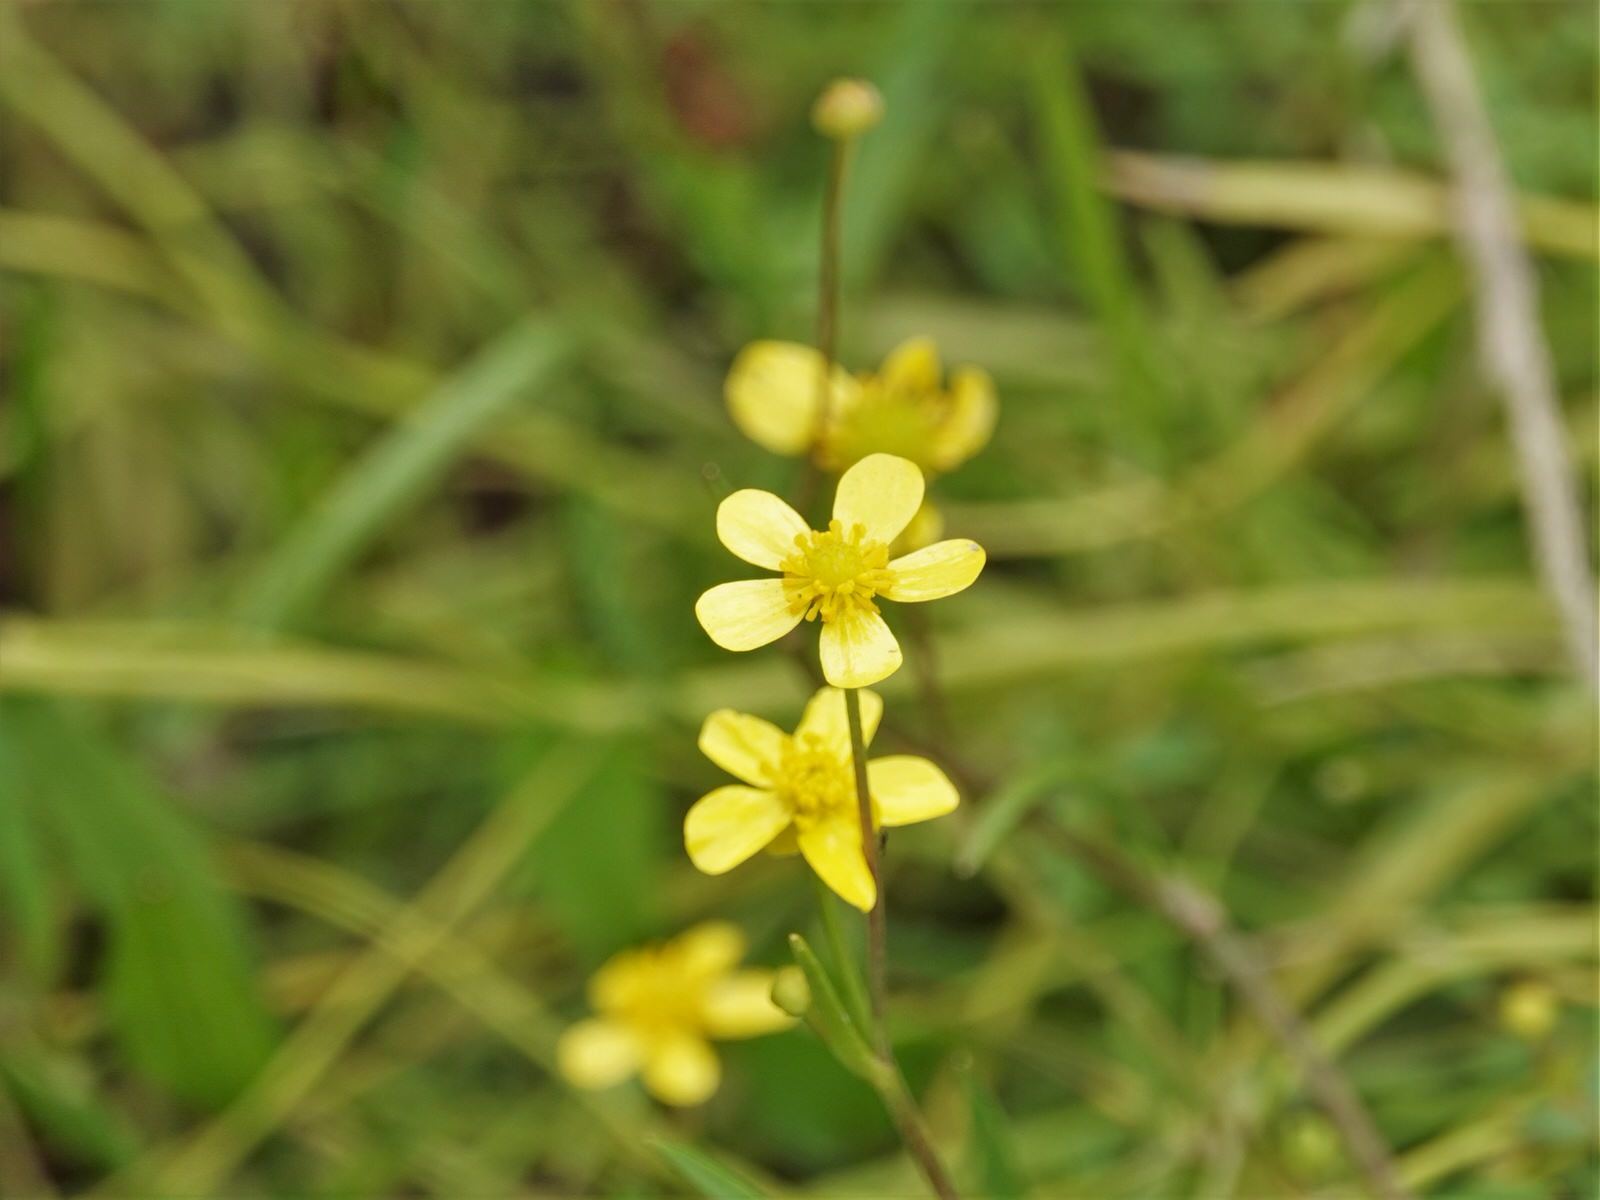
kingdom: Plantae
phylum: Tracheophyta
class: Magnoliopsida
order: Ranunculales
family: Ranunculaceae
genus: Ranunculus
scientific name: Ranunculus flammula
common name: Lesser spearwort
